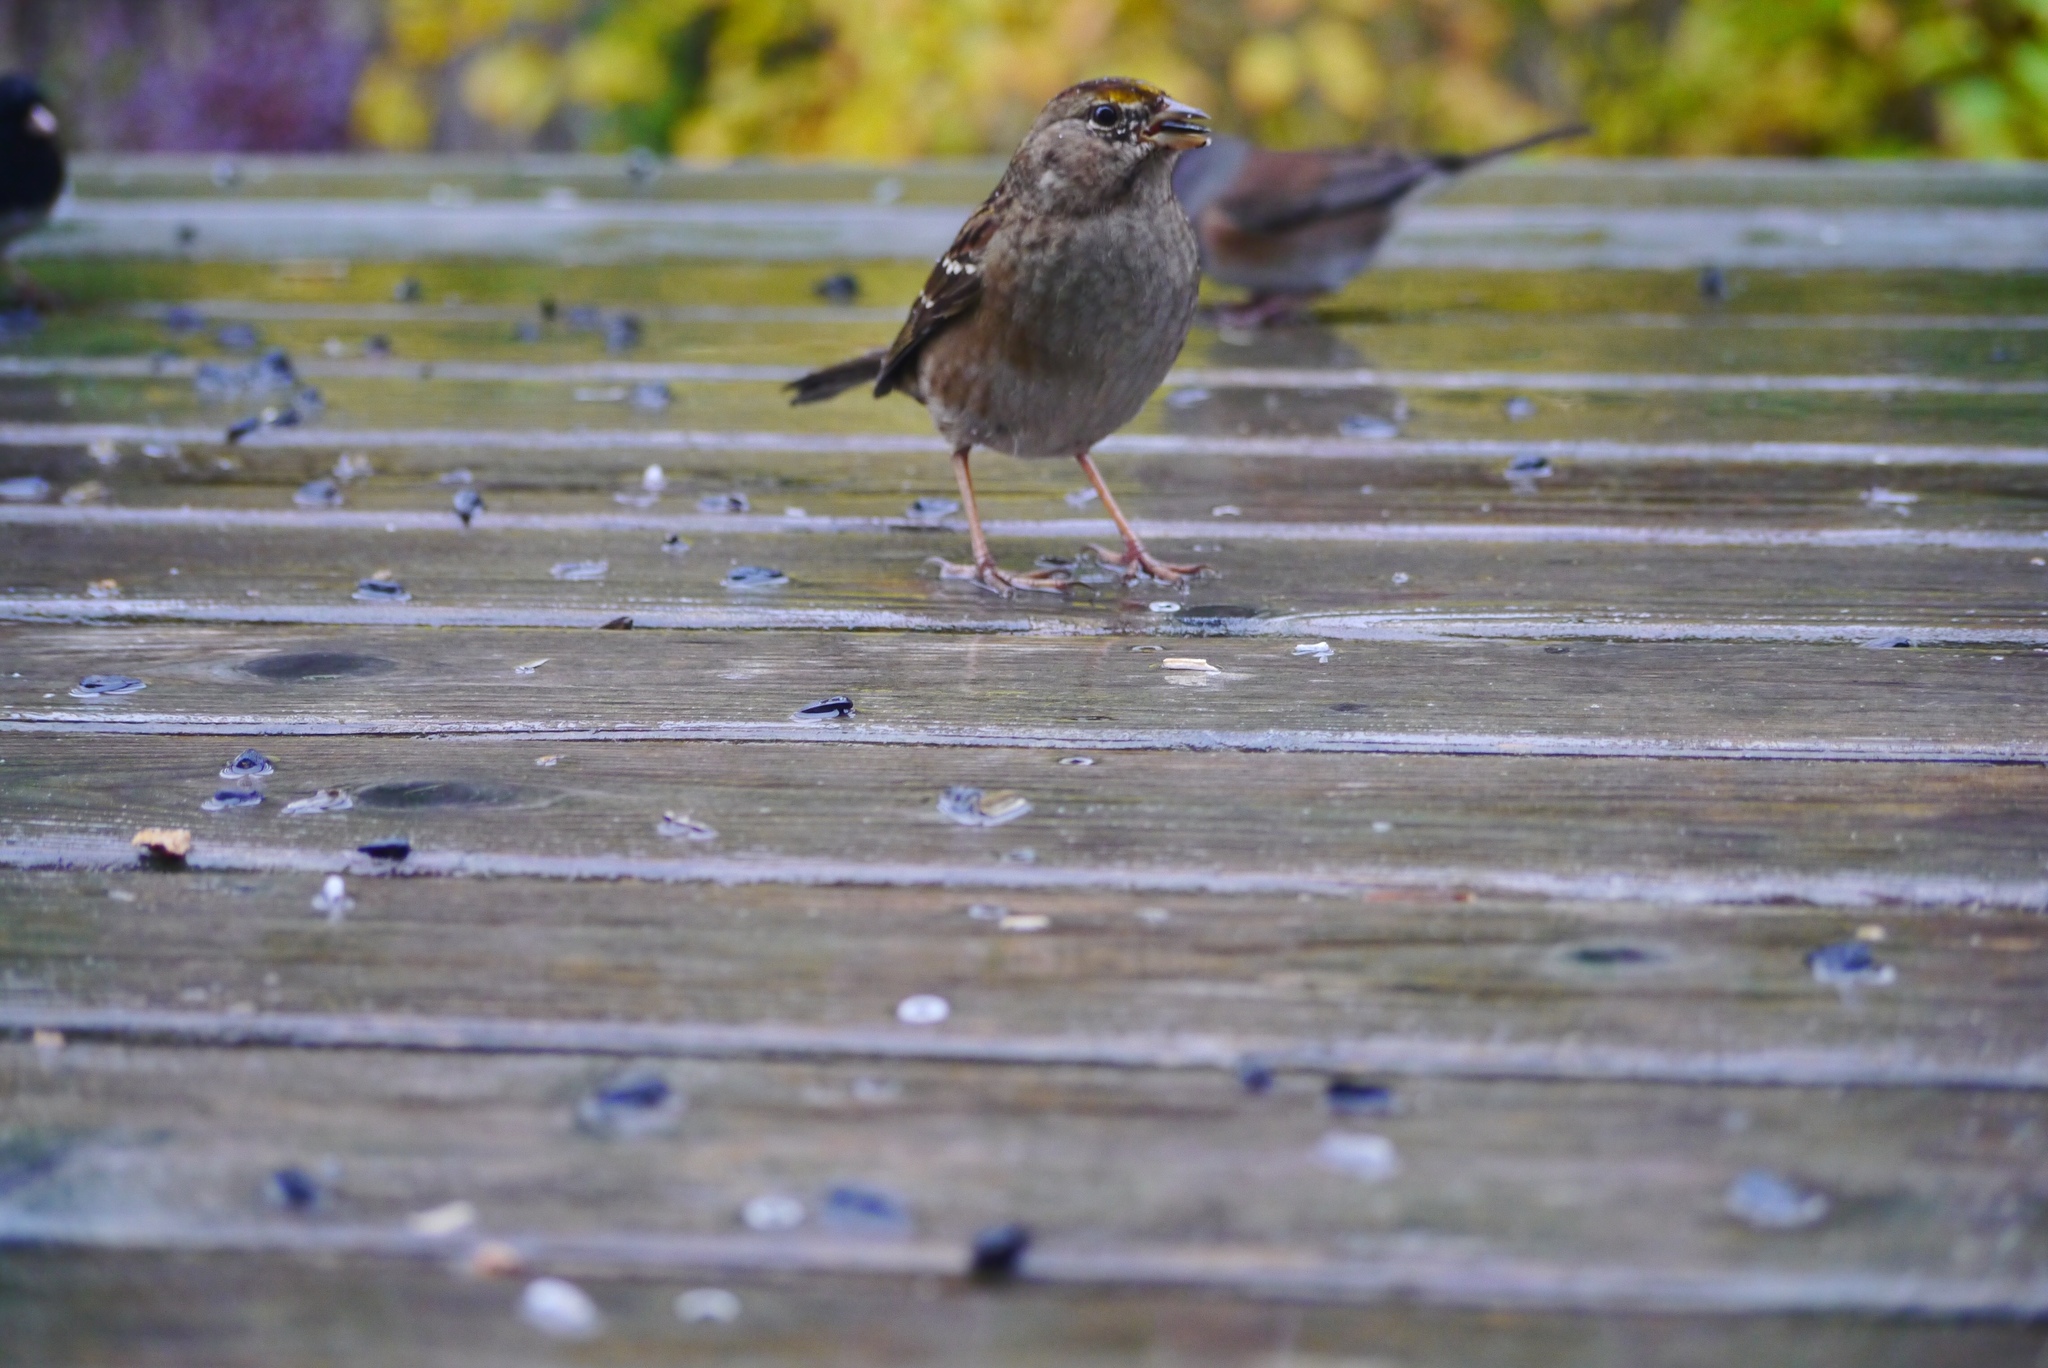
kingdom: Animalia
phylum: Chordata
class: Aves
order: Passeriformes
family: Passerellidae
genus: Zonotrichia
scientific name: Zonotrichia atricapilla
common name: Golden-crowned sparrow
